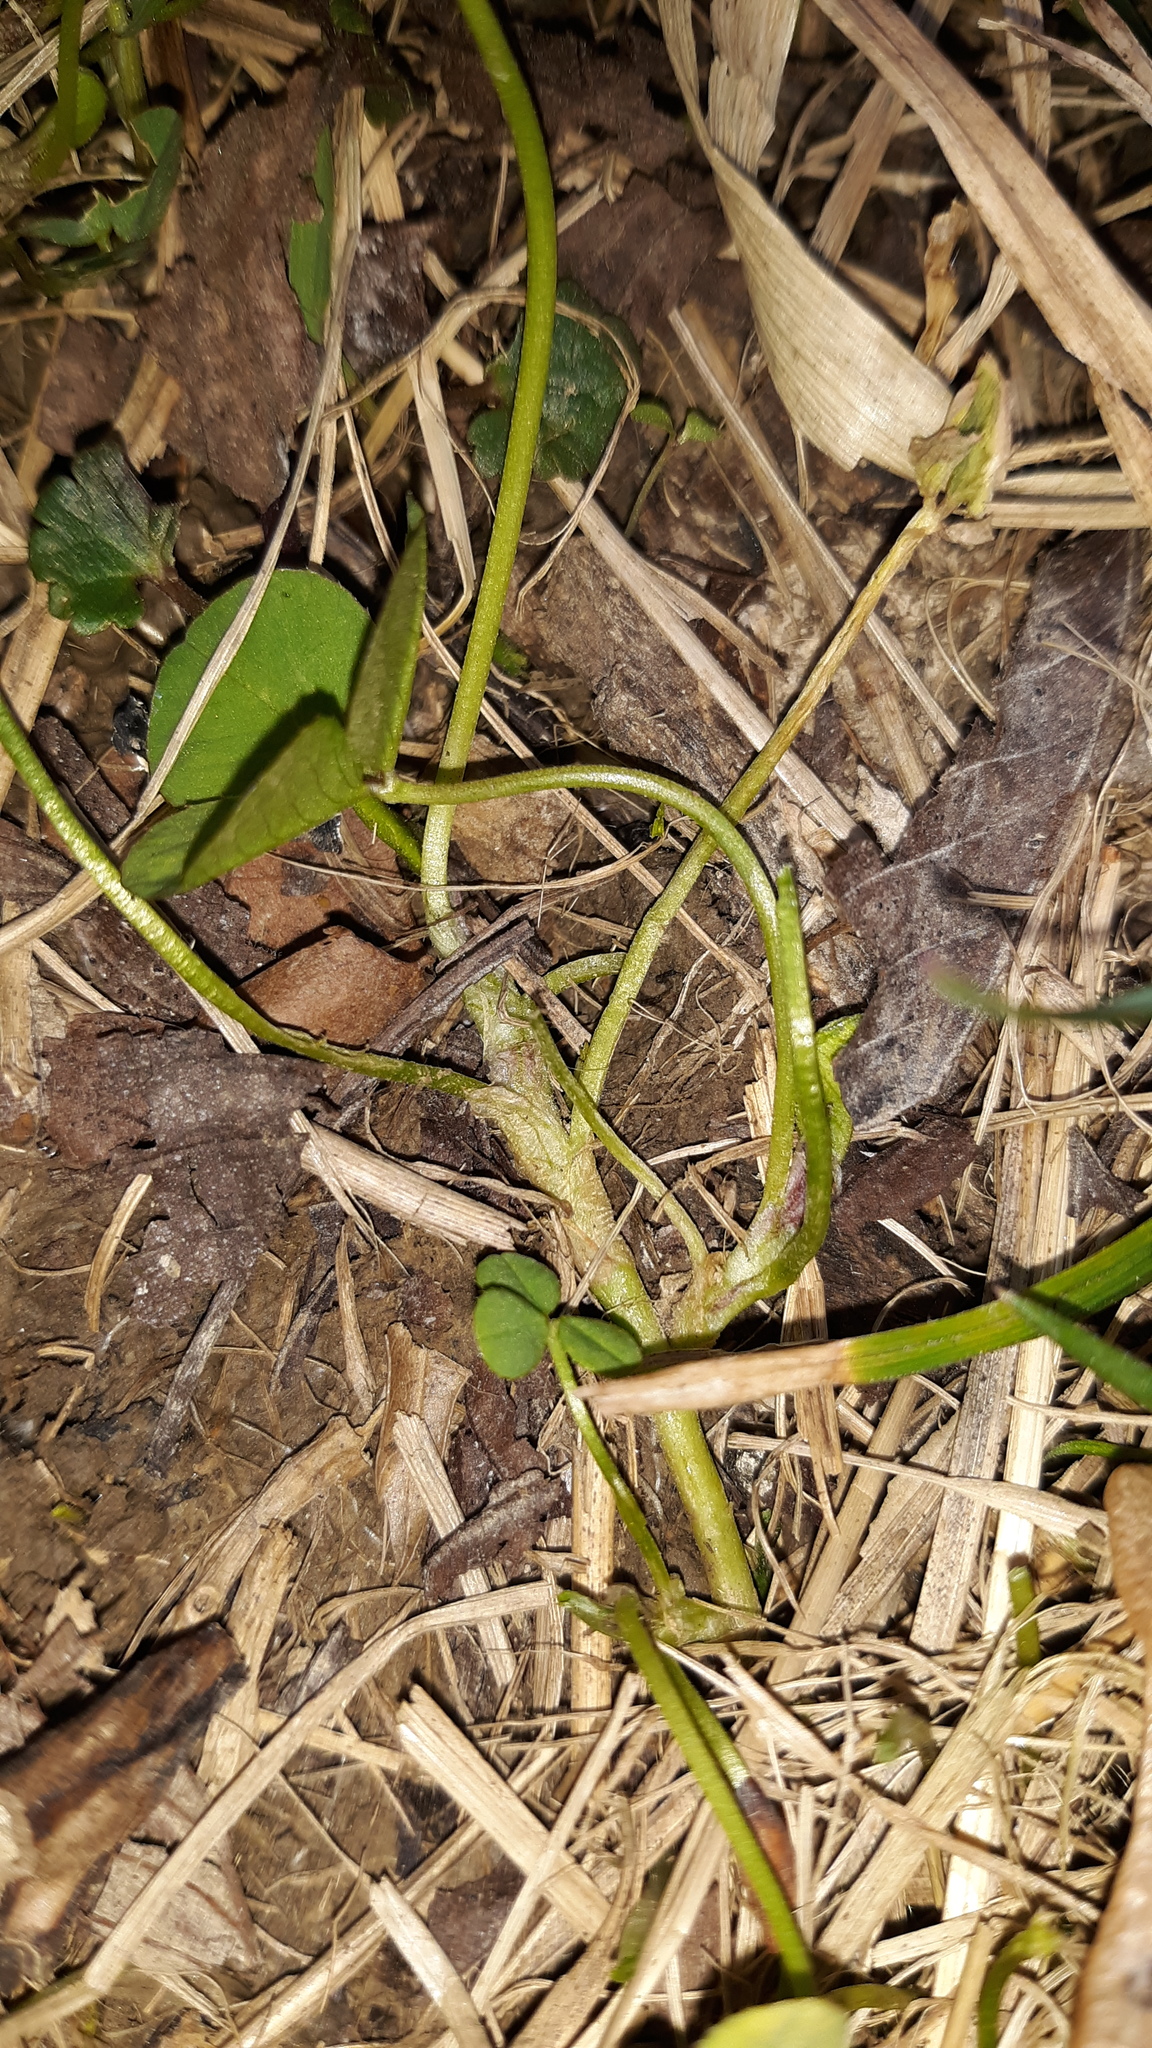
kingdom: Plantae
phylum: Tracheophyta
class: Magnoliopsida
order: Fabales
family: Fabaceae
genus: Trifolium
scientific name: Trifolium repens
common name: White clover
